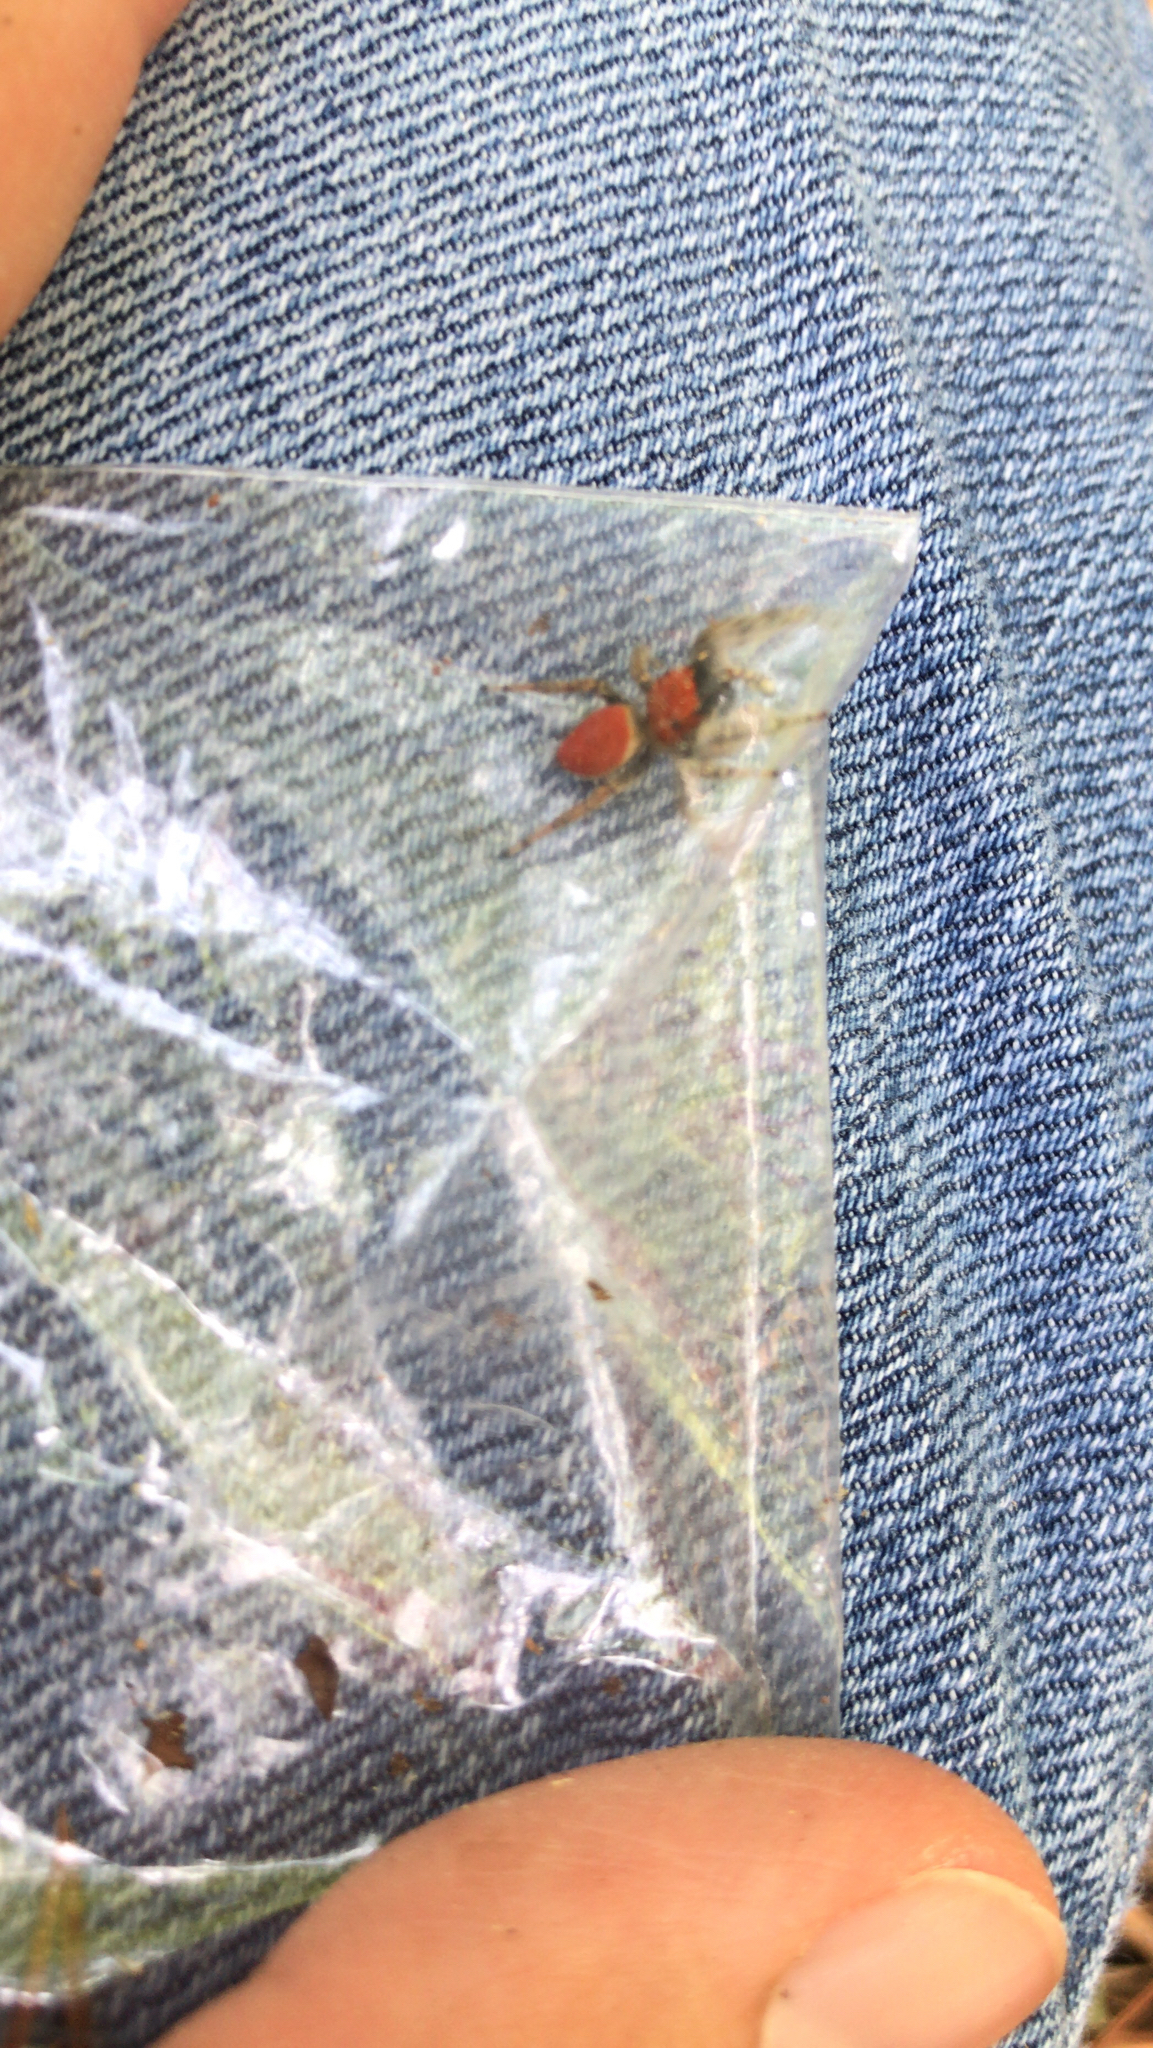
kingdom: Animalia
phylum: Arthropoda
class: Arachnida
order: Araneae
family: Salticidae
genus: Phidippus
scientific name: Phidippus whitmani
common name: Whitman's jumping spider
